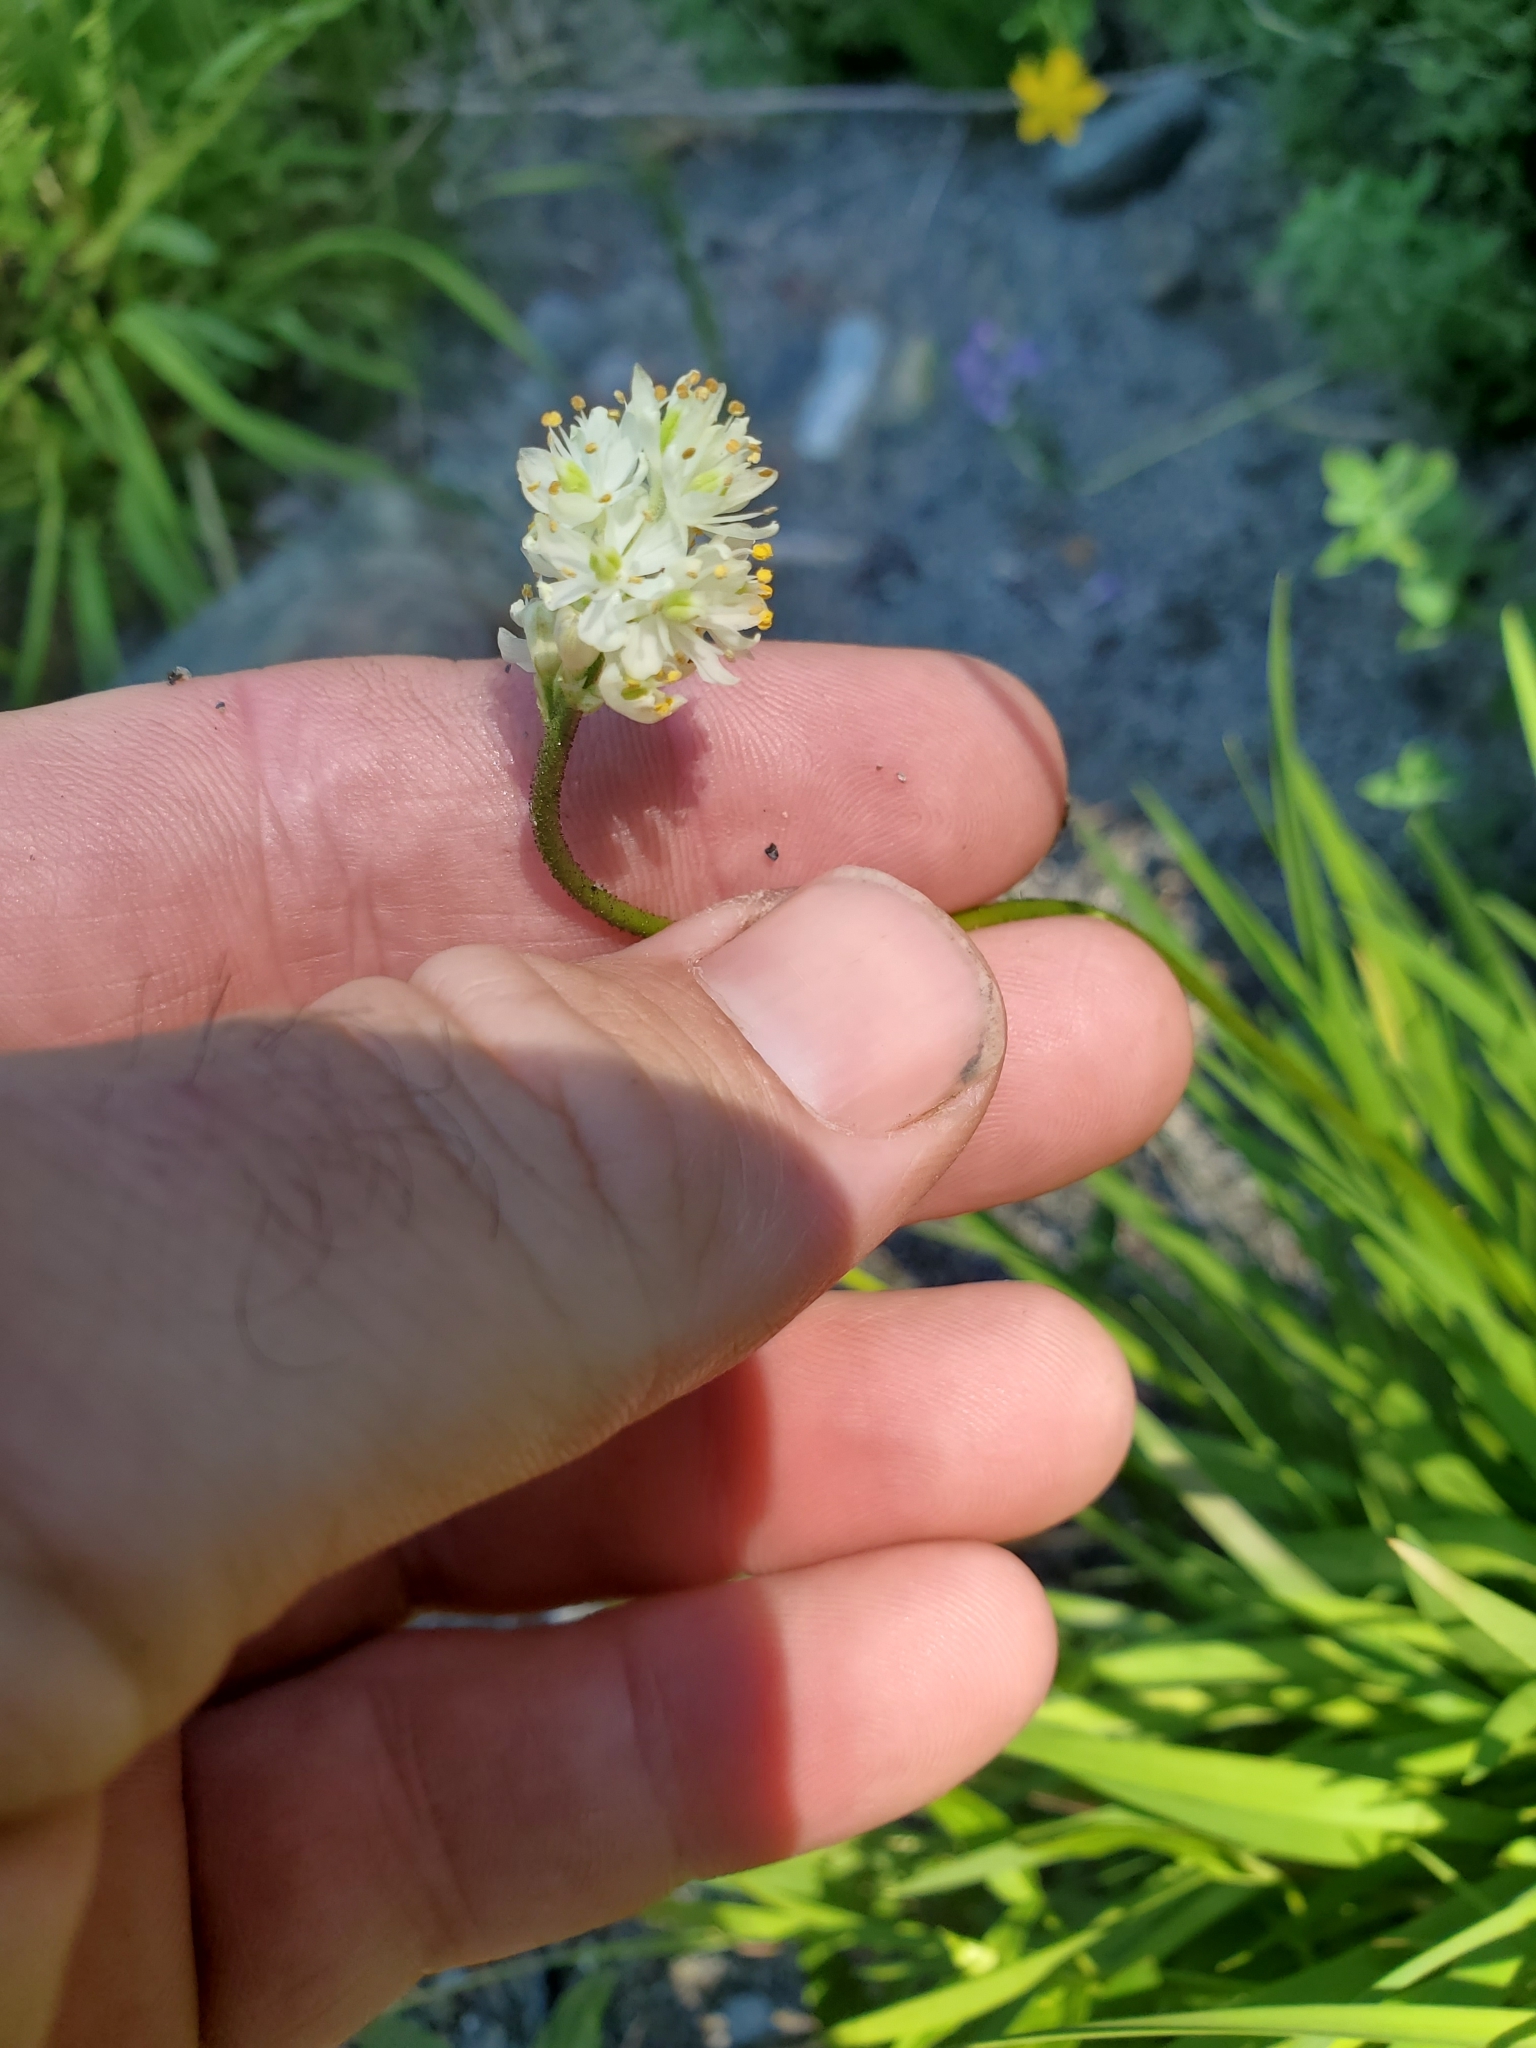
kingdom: Plantae
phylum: Tracheophyta
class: Liliopsida
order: Alismatales
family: Tofieldiaceae
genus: Triantha
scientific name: Triantha occidentalis
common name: Western false asphodel
